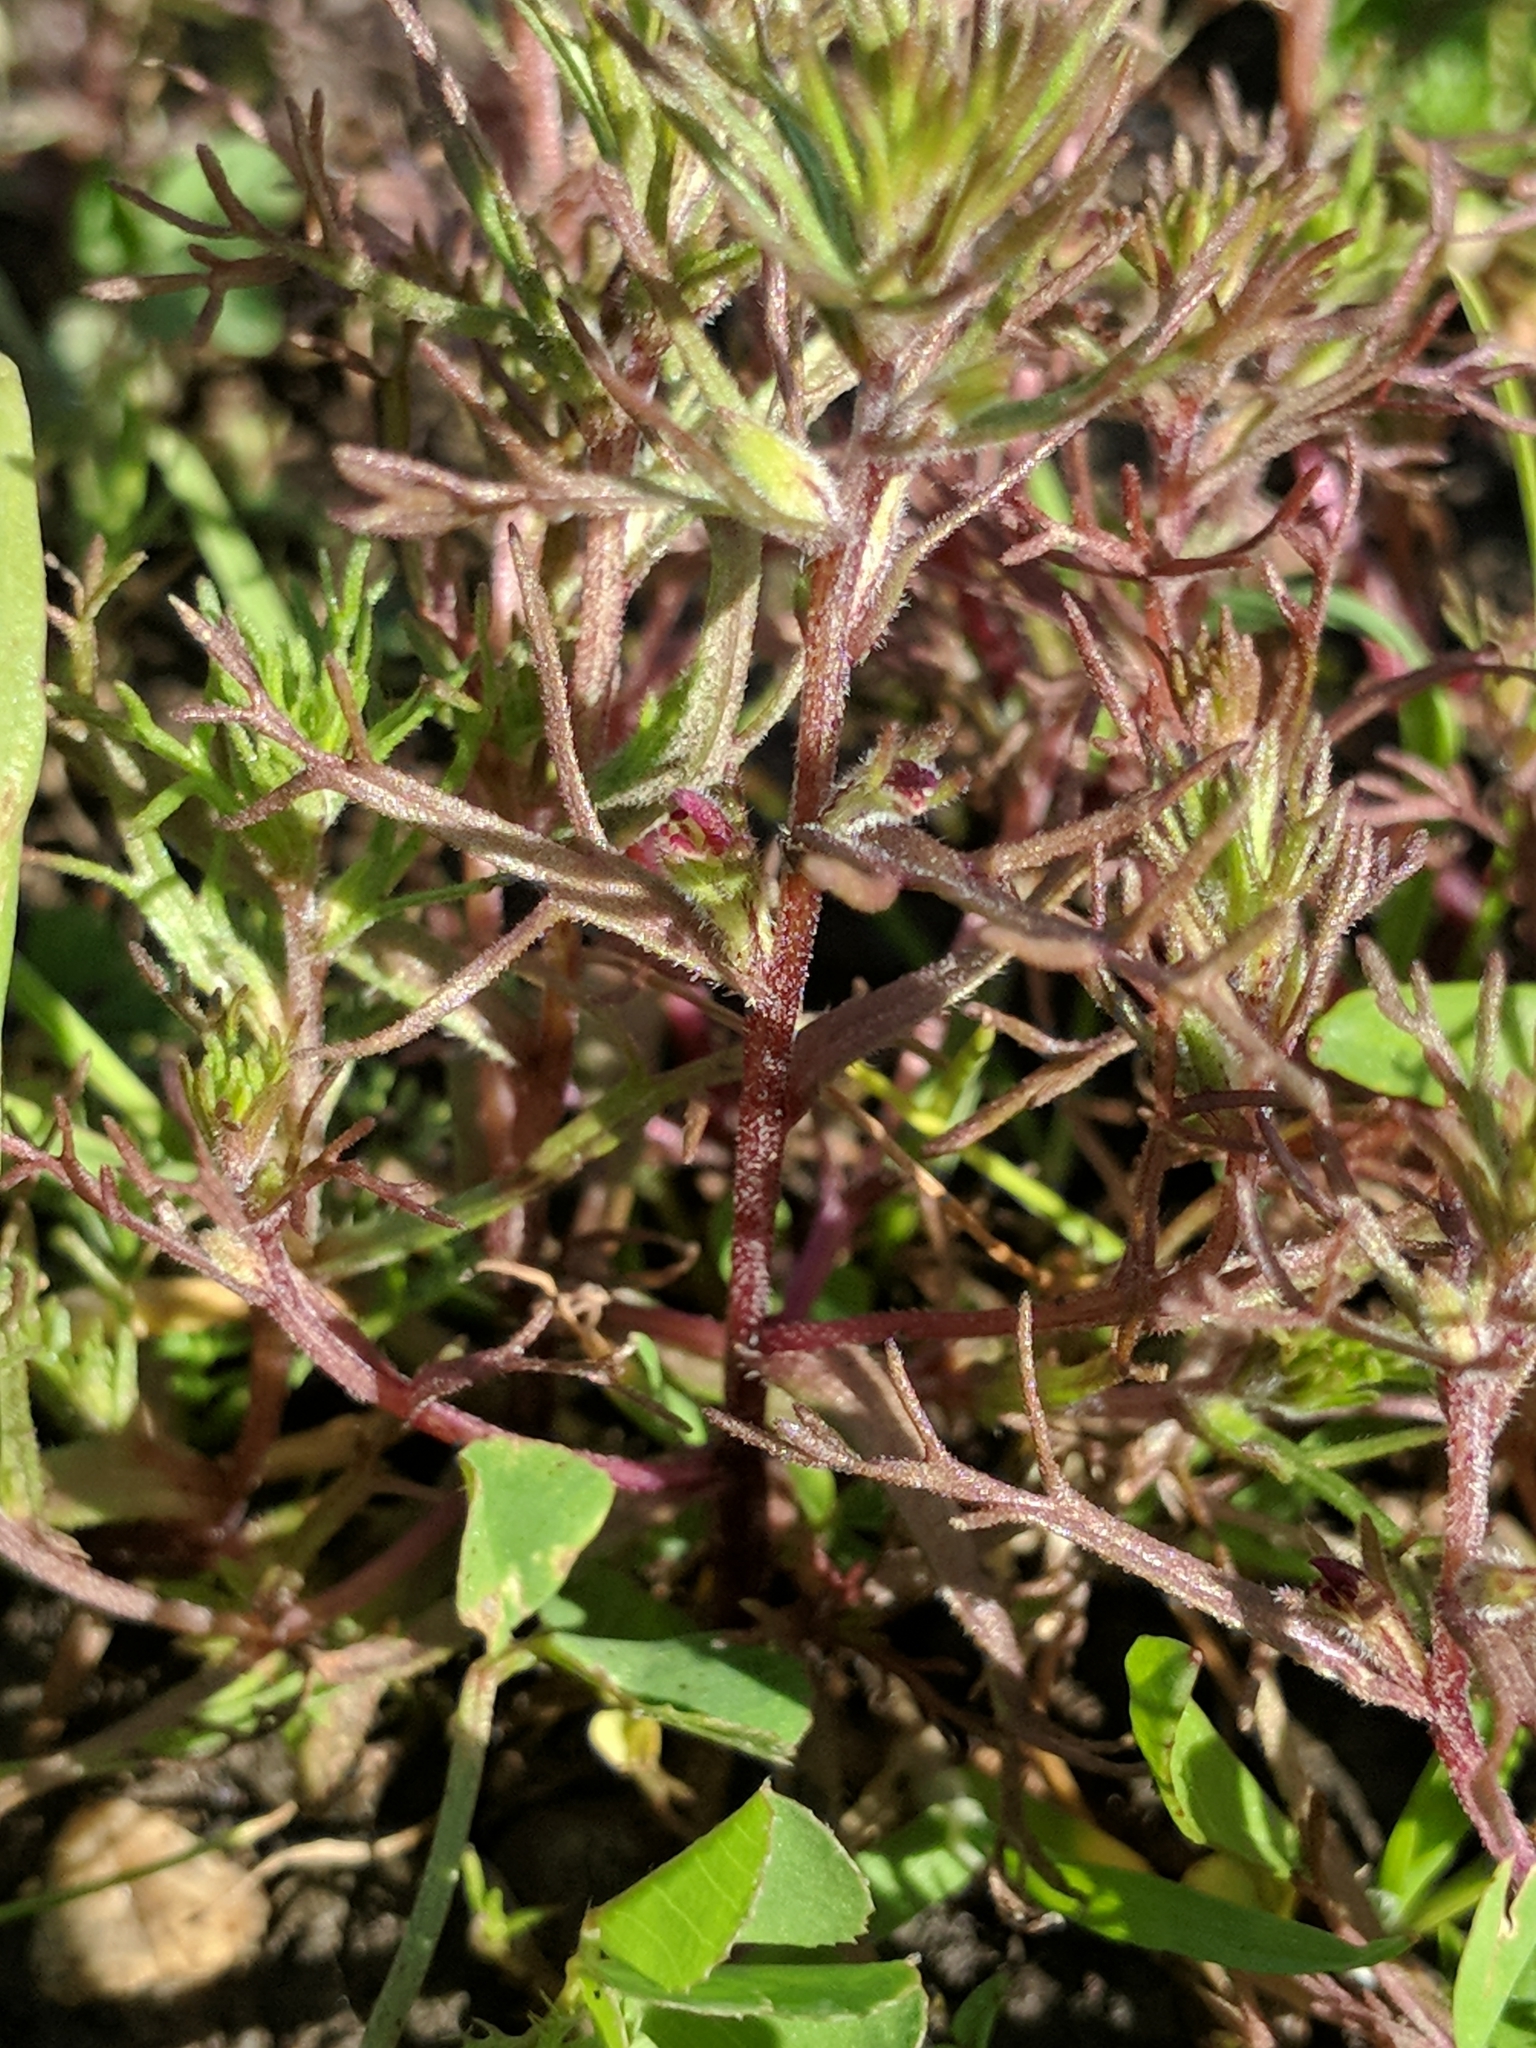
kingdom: Plantae
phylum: Tracheophyta
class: Magnoliopsida
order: Lamiales
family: Orobanchaceae
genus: Triphysaria
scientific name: Triphysaria pusilla
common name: Dwarf false owl-clover
